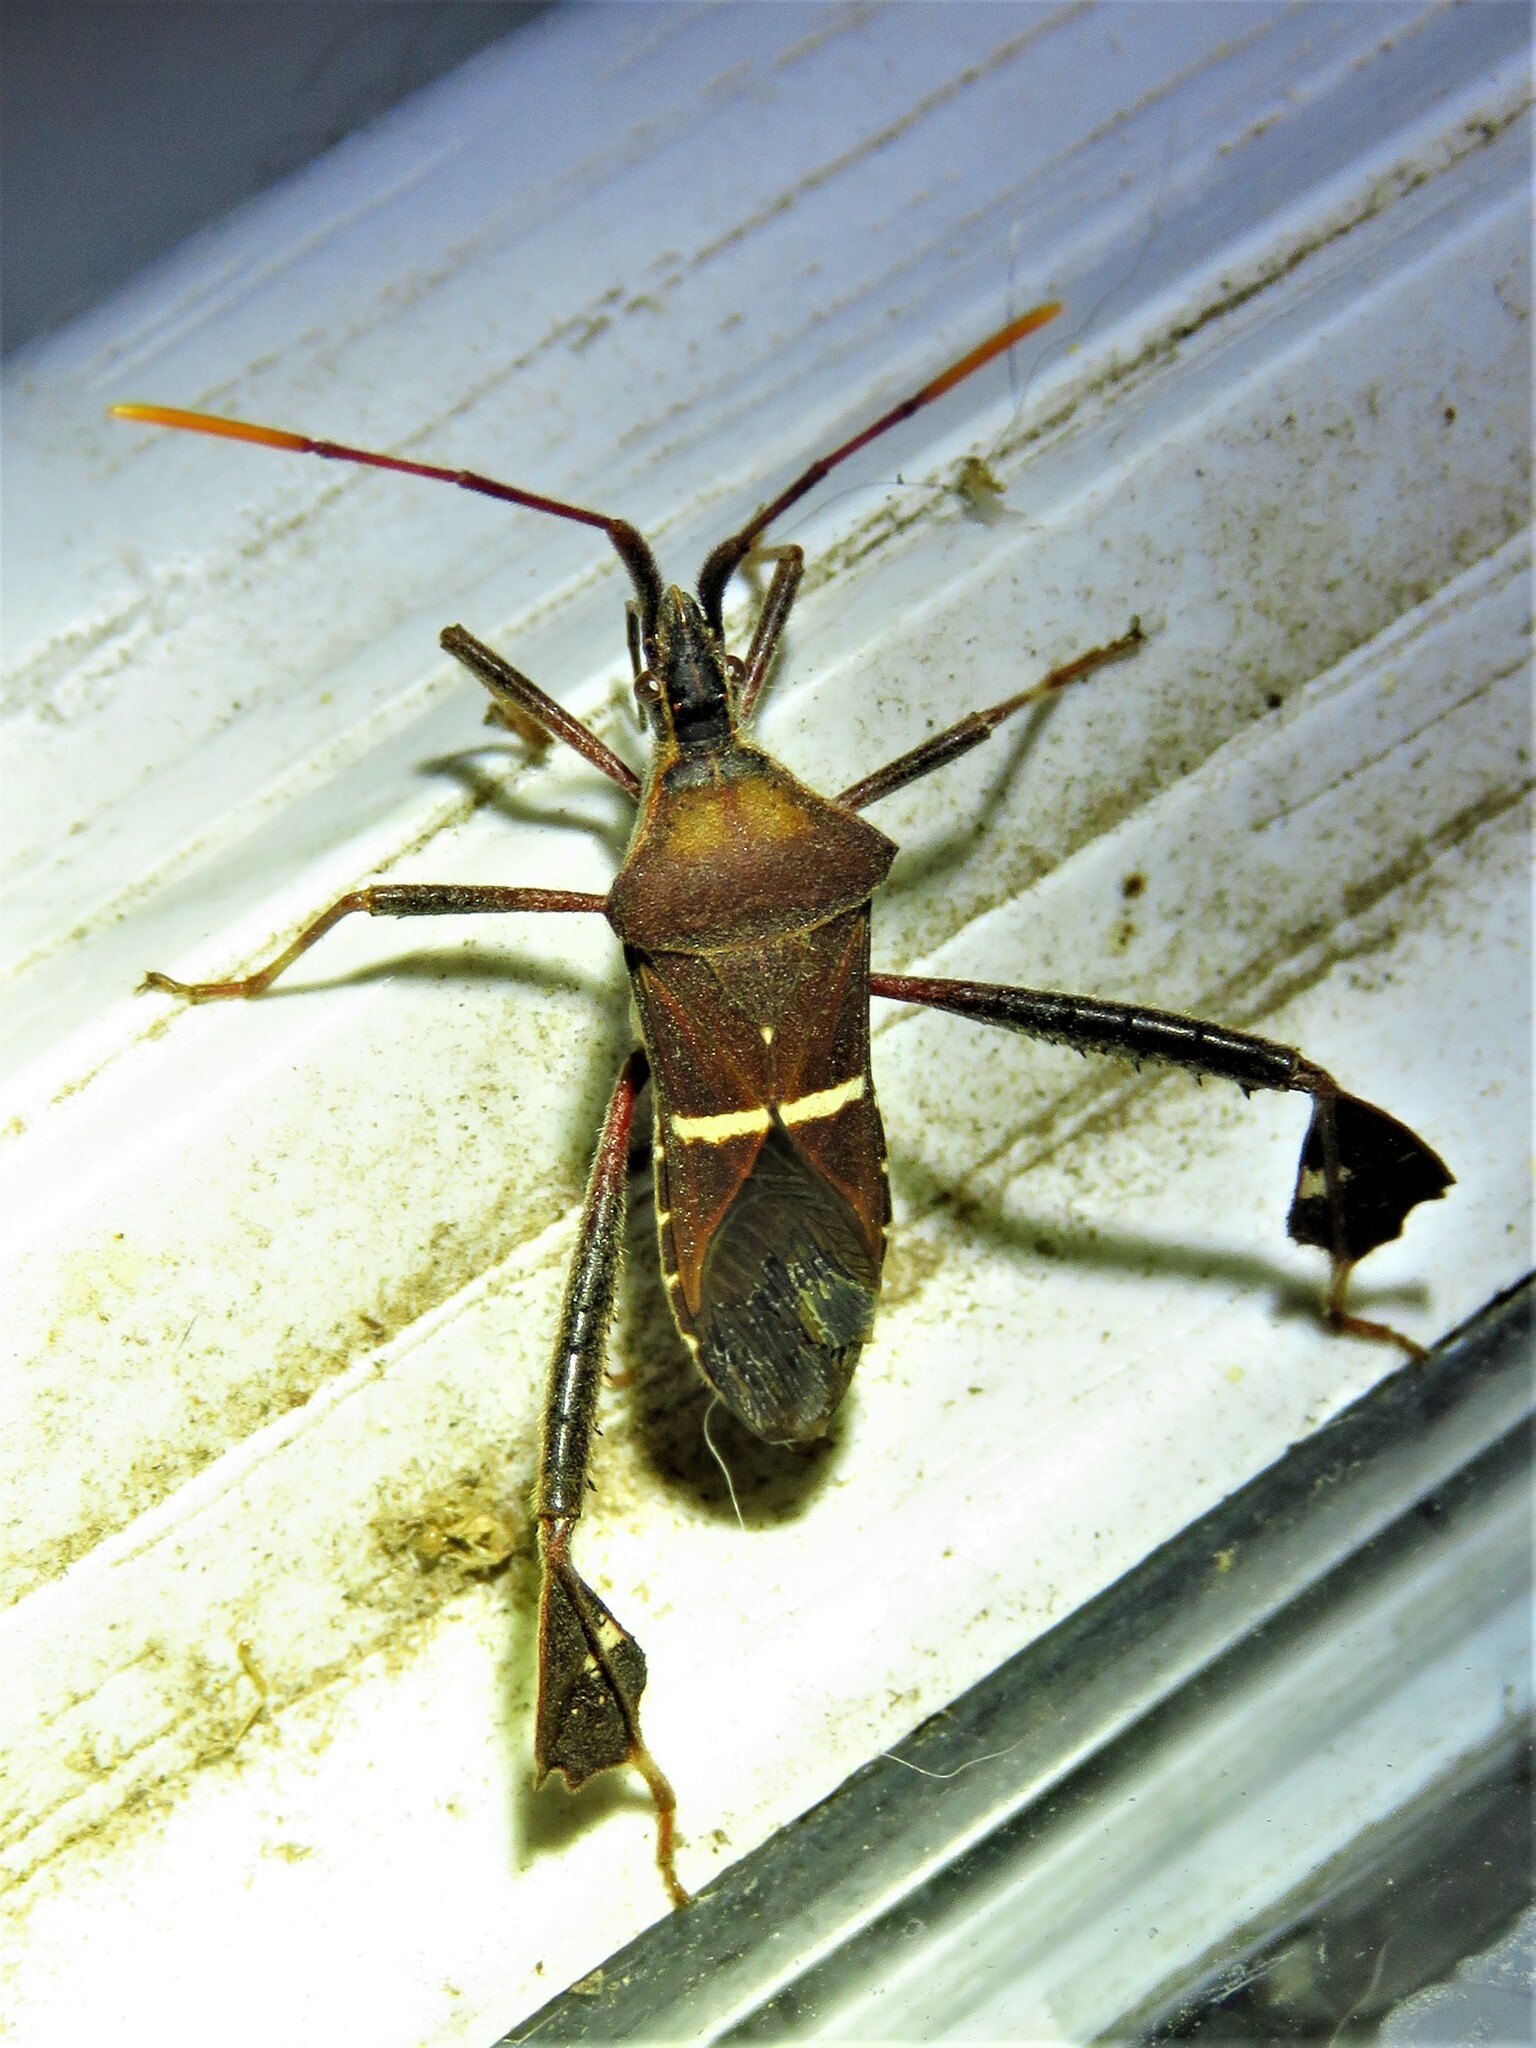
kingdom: Animalia
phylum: Arthropoda
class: Insecta
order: Hemiptera
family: Coreidae
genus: Leptoglossus
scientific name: Leptoglossus phyllopus
